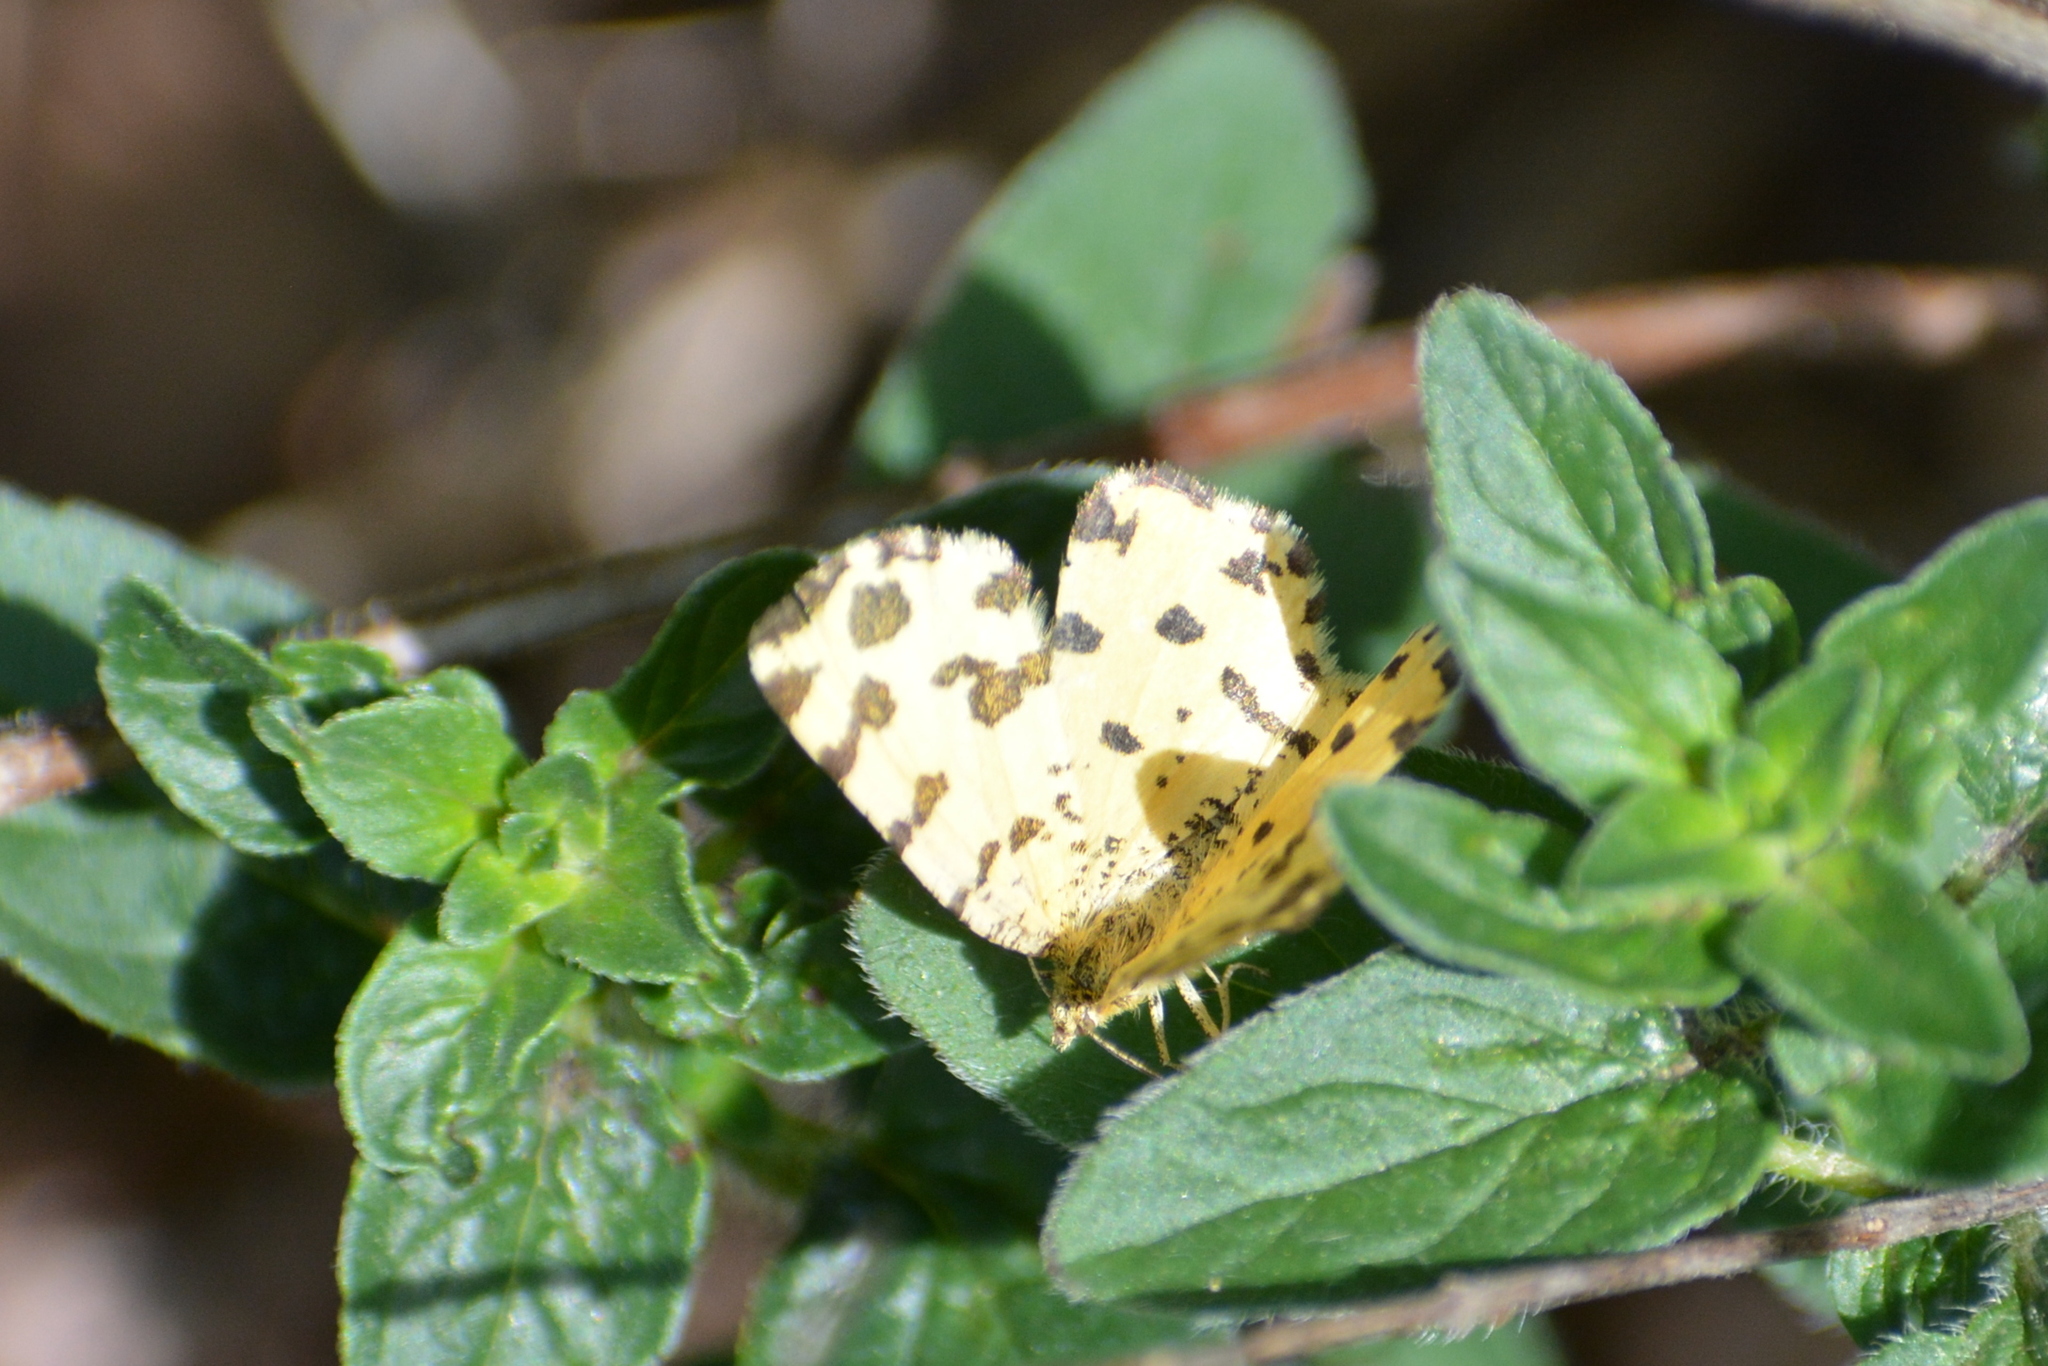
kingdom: Animalia
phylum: Arthropoda
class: Insecta
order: Lepidoptera
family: Geometridae
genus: Pseudopanthera
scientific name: Pseudopanthera macularia
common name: Speckled yellow
